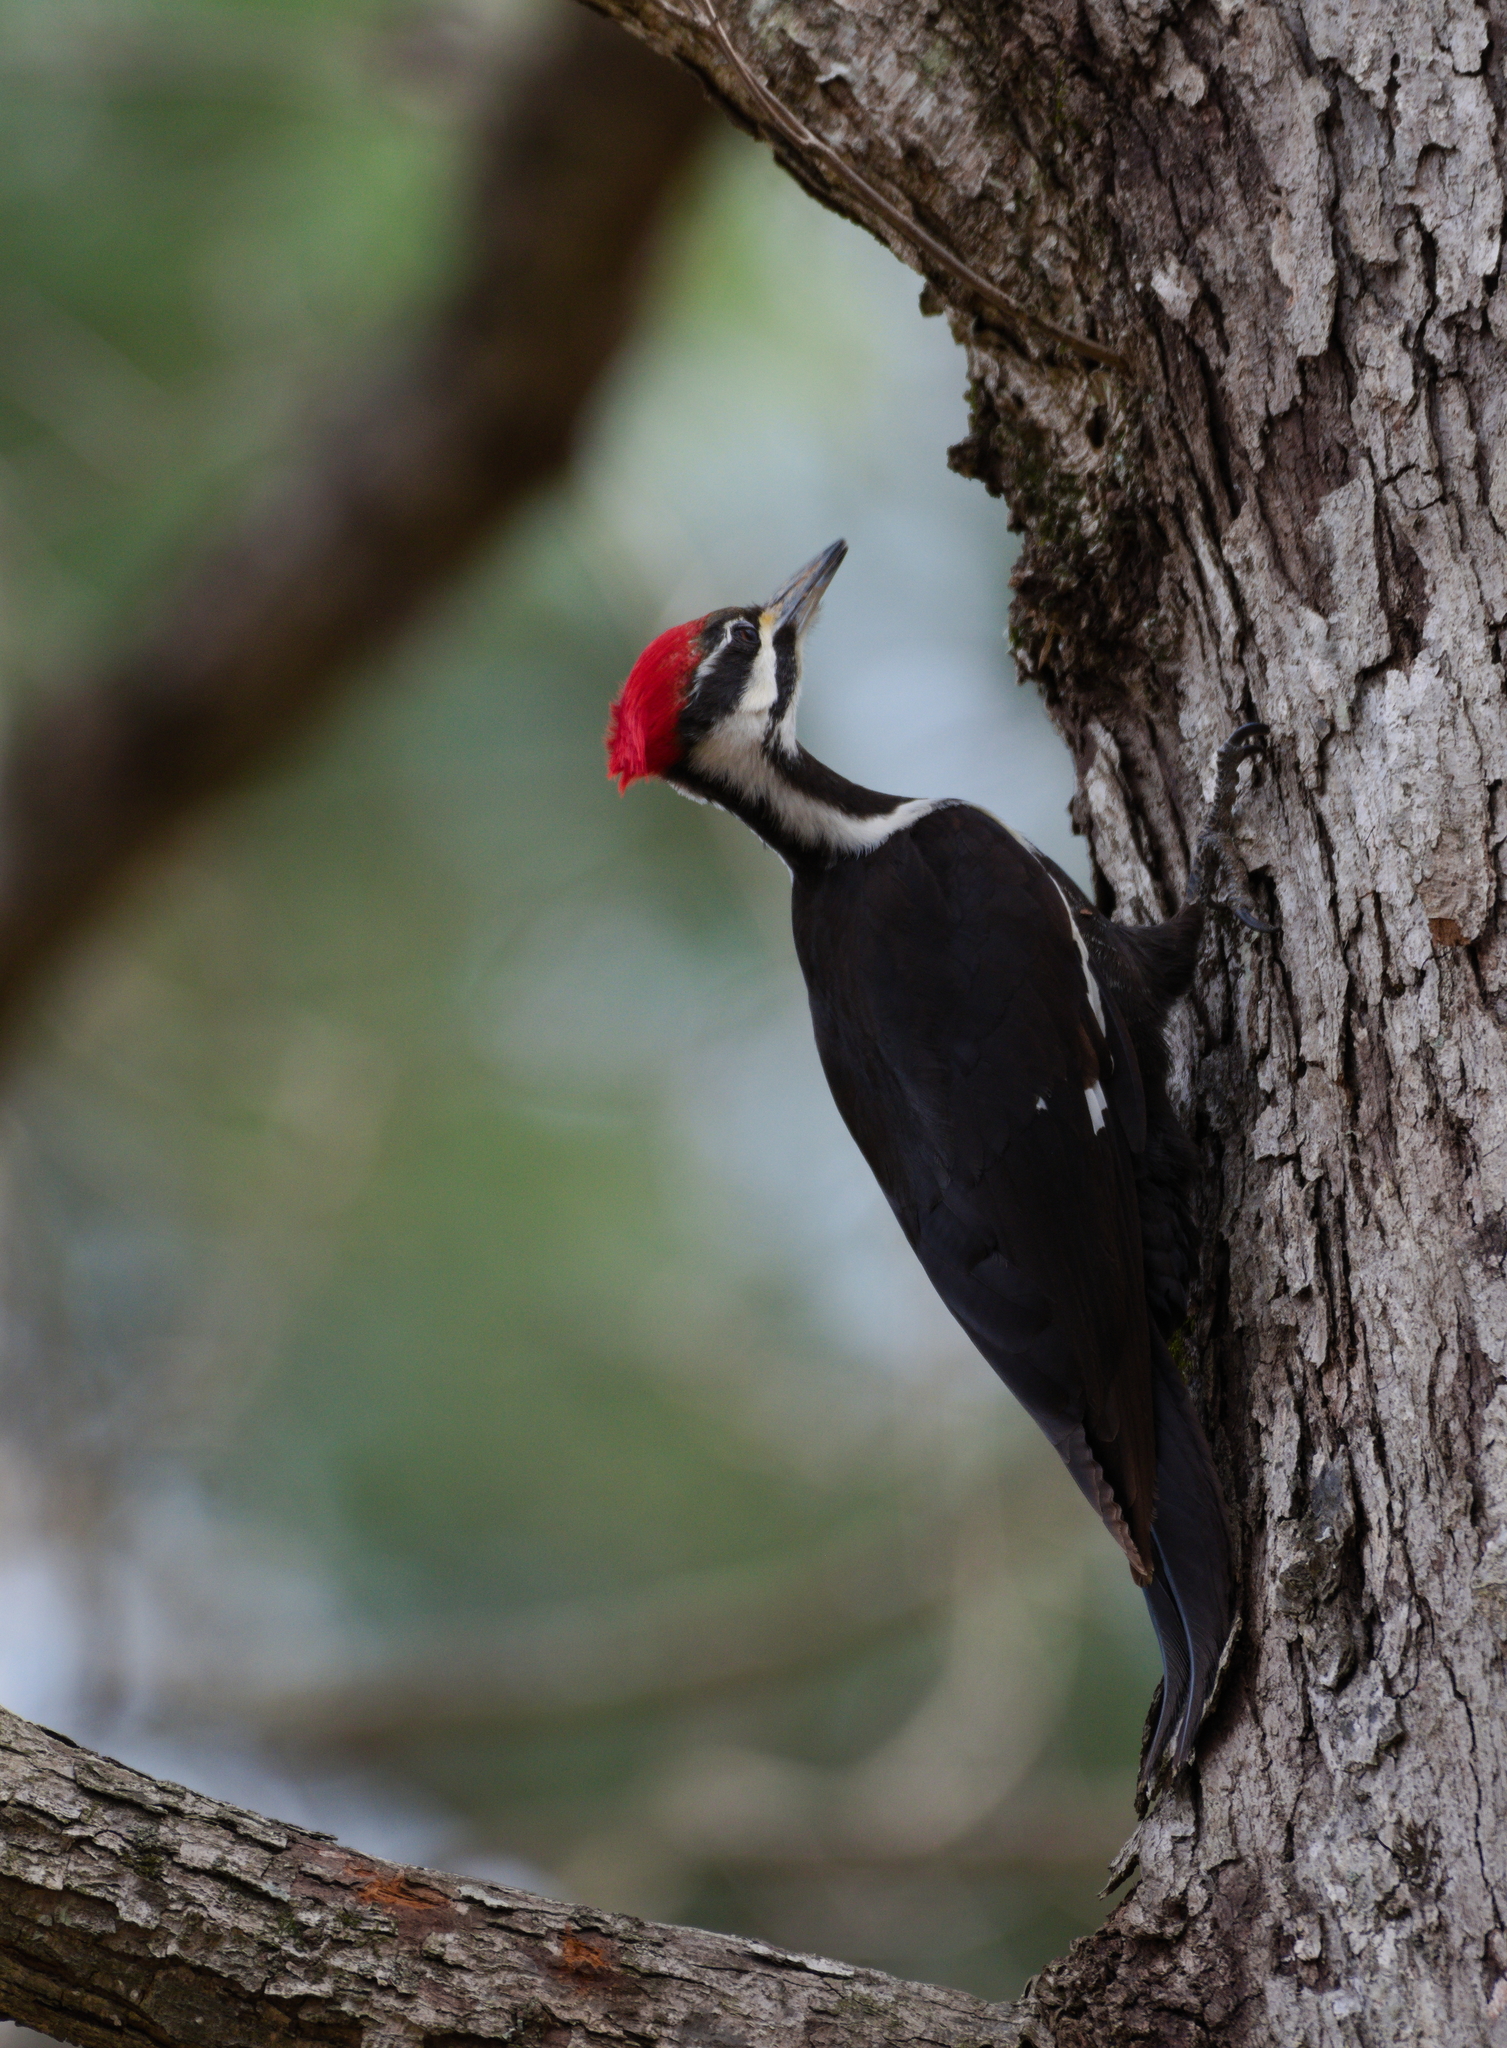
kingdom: Animalia
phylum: Chordata
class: Aves
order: Piciformes
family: Picidae
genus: Dryocopus
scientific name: Dryocopus pileatus
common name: Pileated woodpecker
